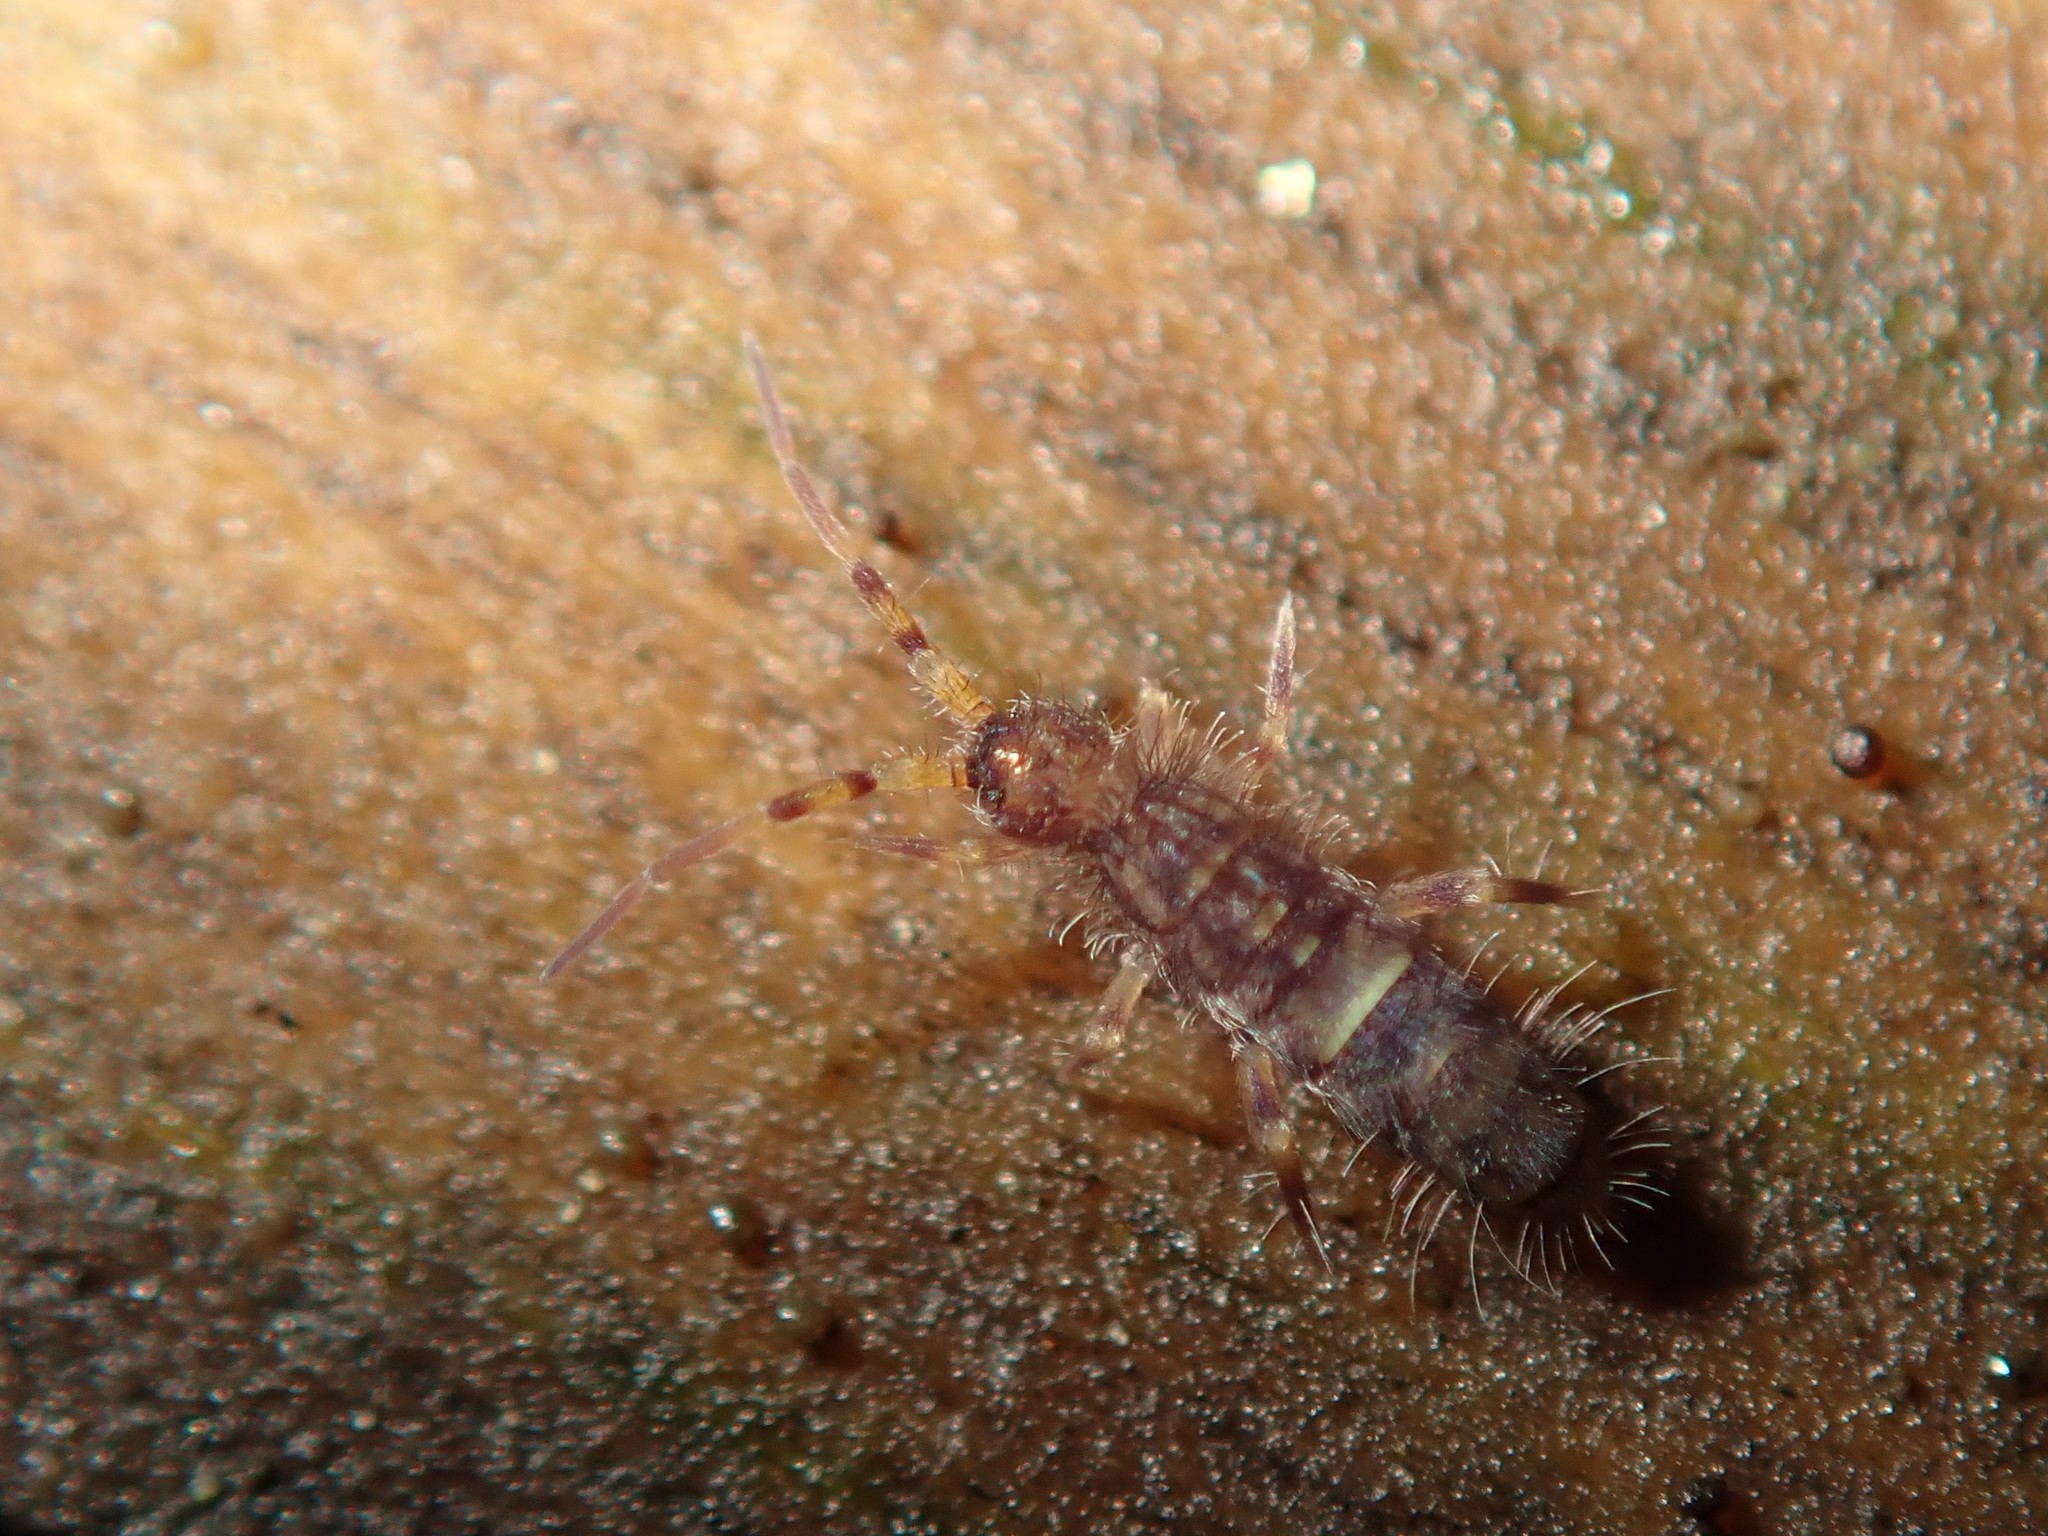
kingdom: Animalia
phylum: Arthropoda
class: Collembola
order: Entomobryomorpha
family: Orchesellidae
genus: Orchesella
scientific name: Orchesella cincta
